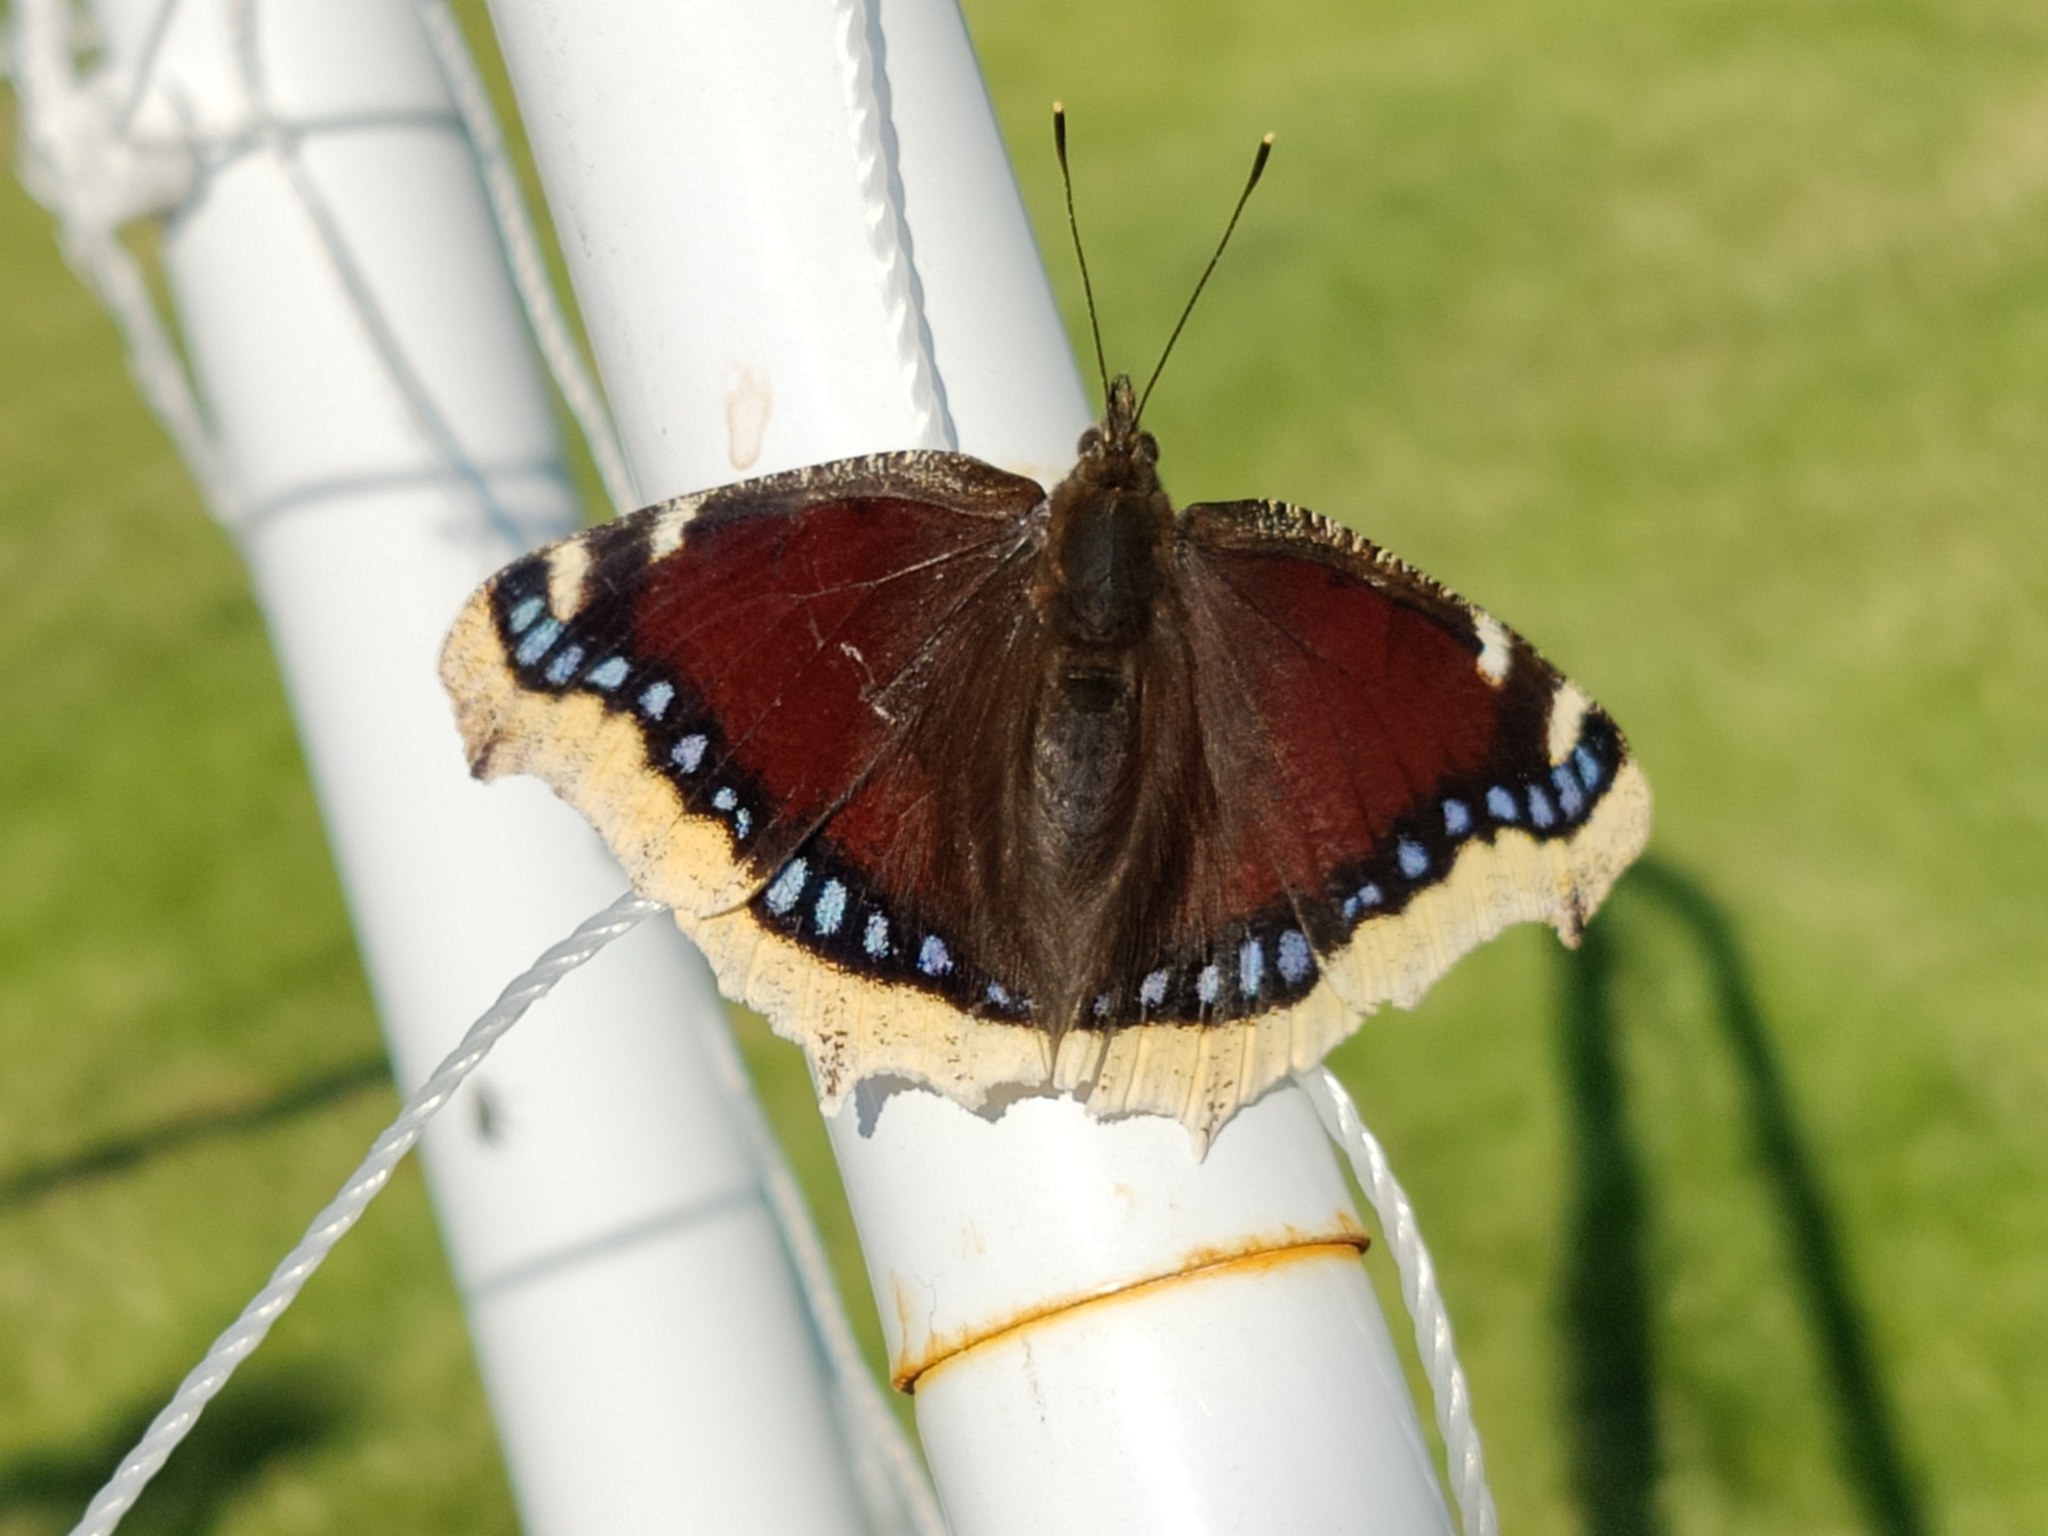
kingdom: Animalia
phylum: Arthropoda
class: Insecta
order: Lepidoptera
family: Nymphalidae
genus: Nymphalis
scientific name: Nymphalis antiopa
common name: Camberwell beauty
